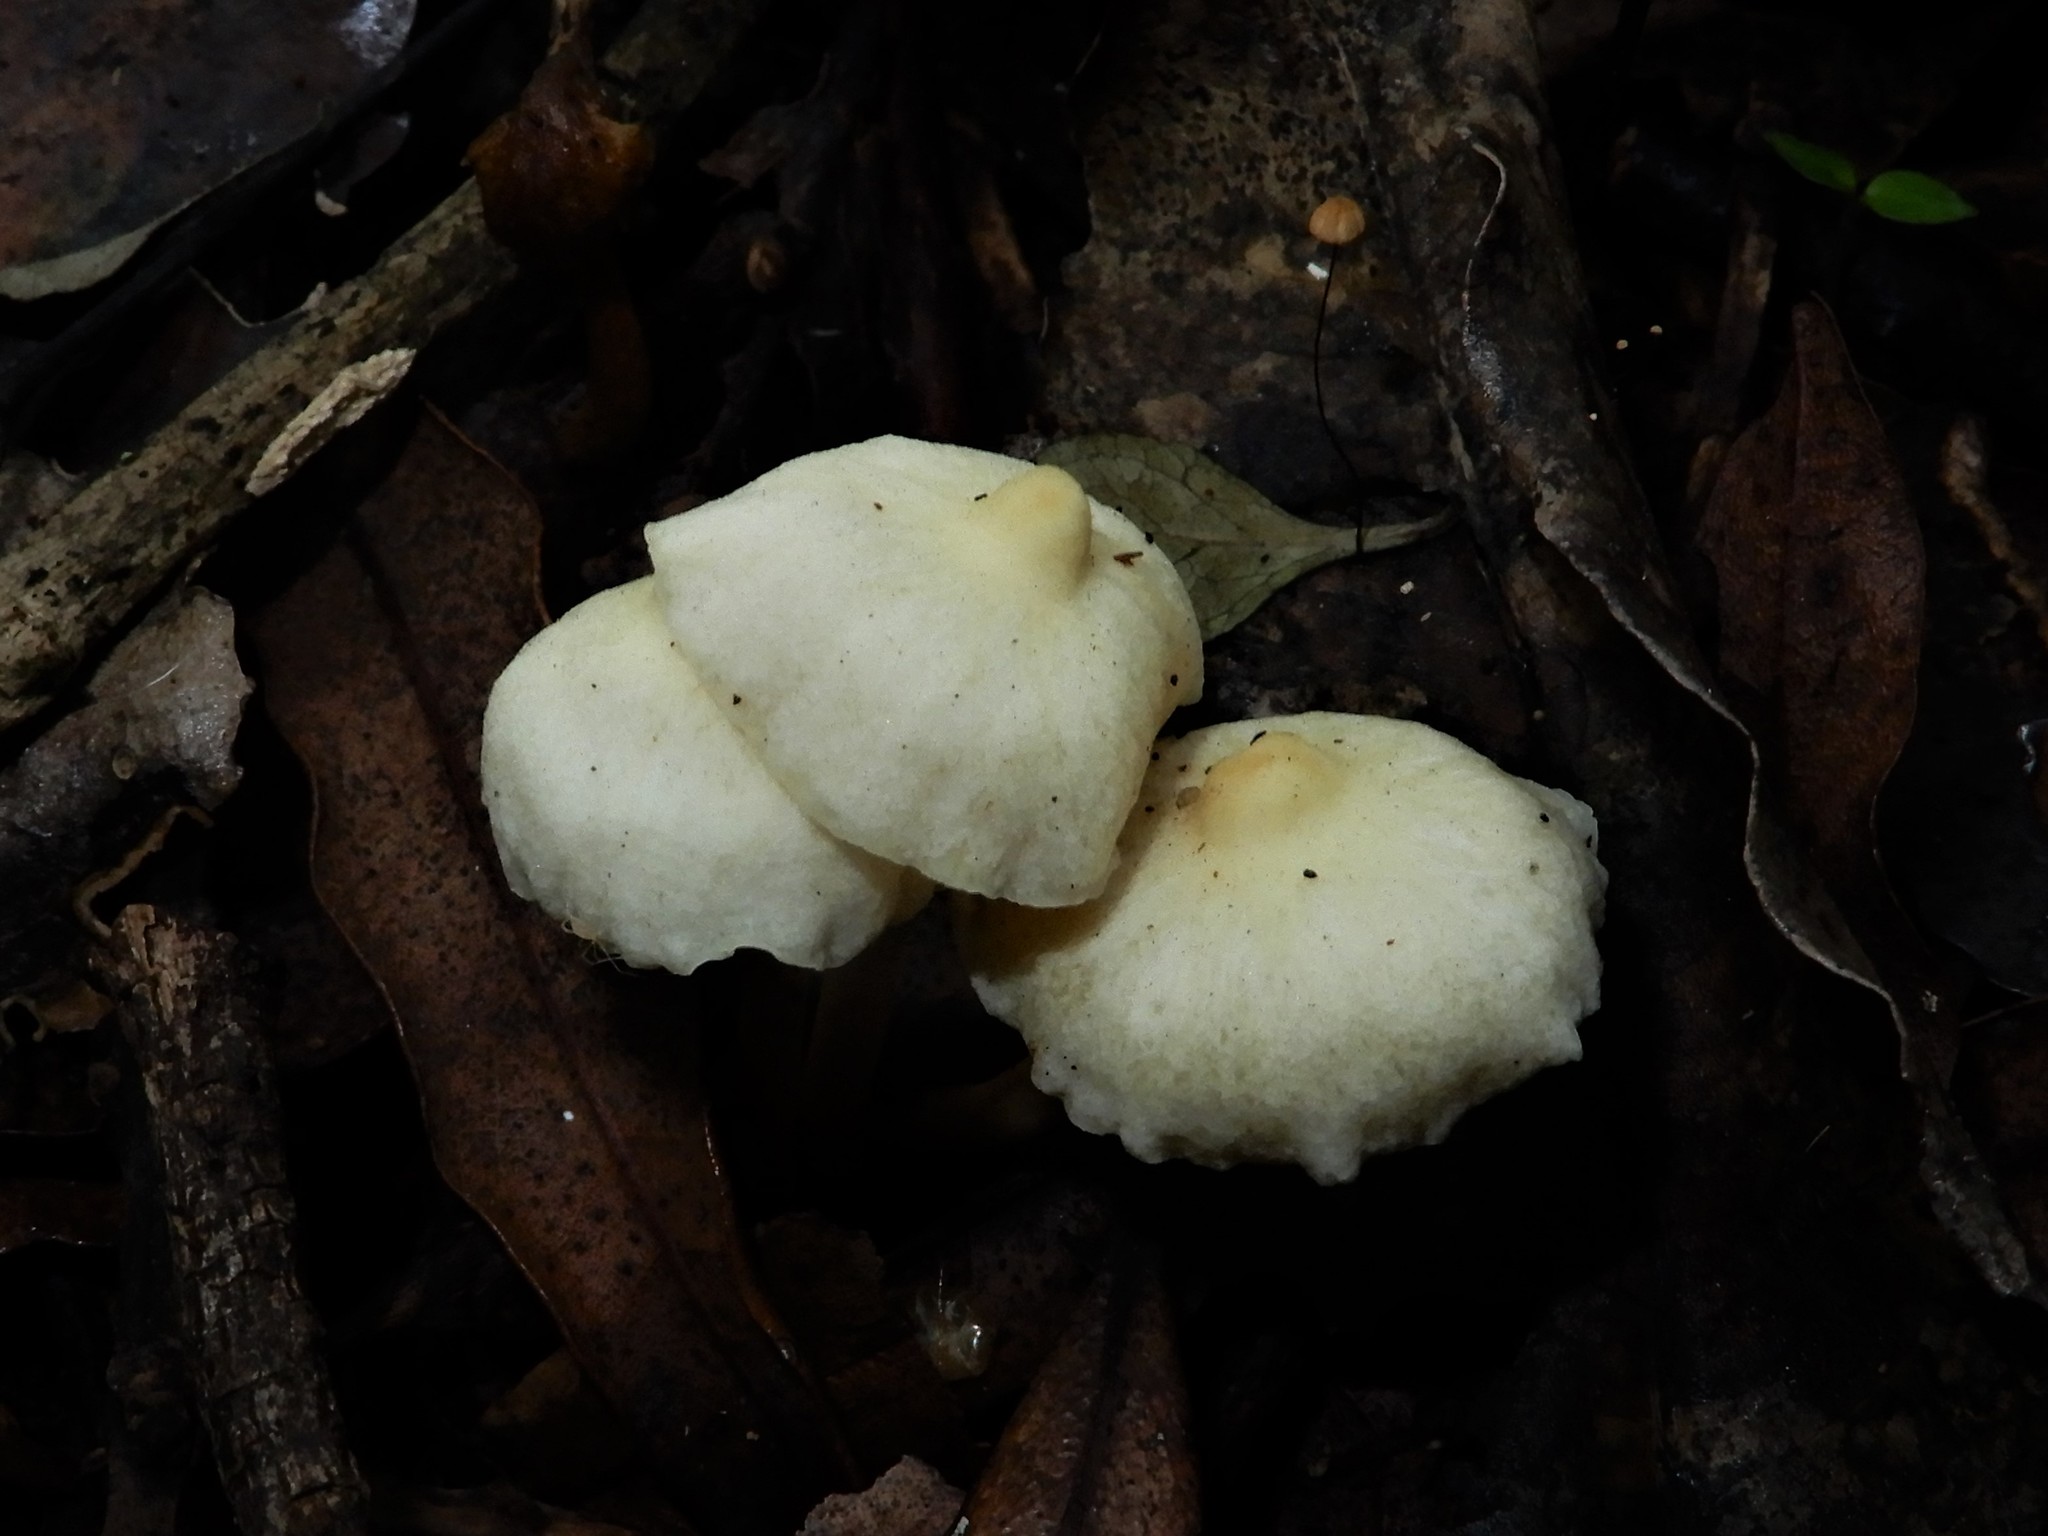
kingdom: Fungi
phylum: Basidiomycota
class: Agaricomycetes
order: Agaricales
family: Hygrophoraceae
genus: Cuphophyllus
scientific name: Cuphophyllus
